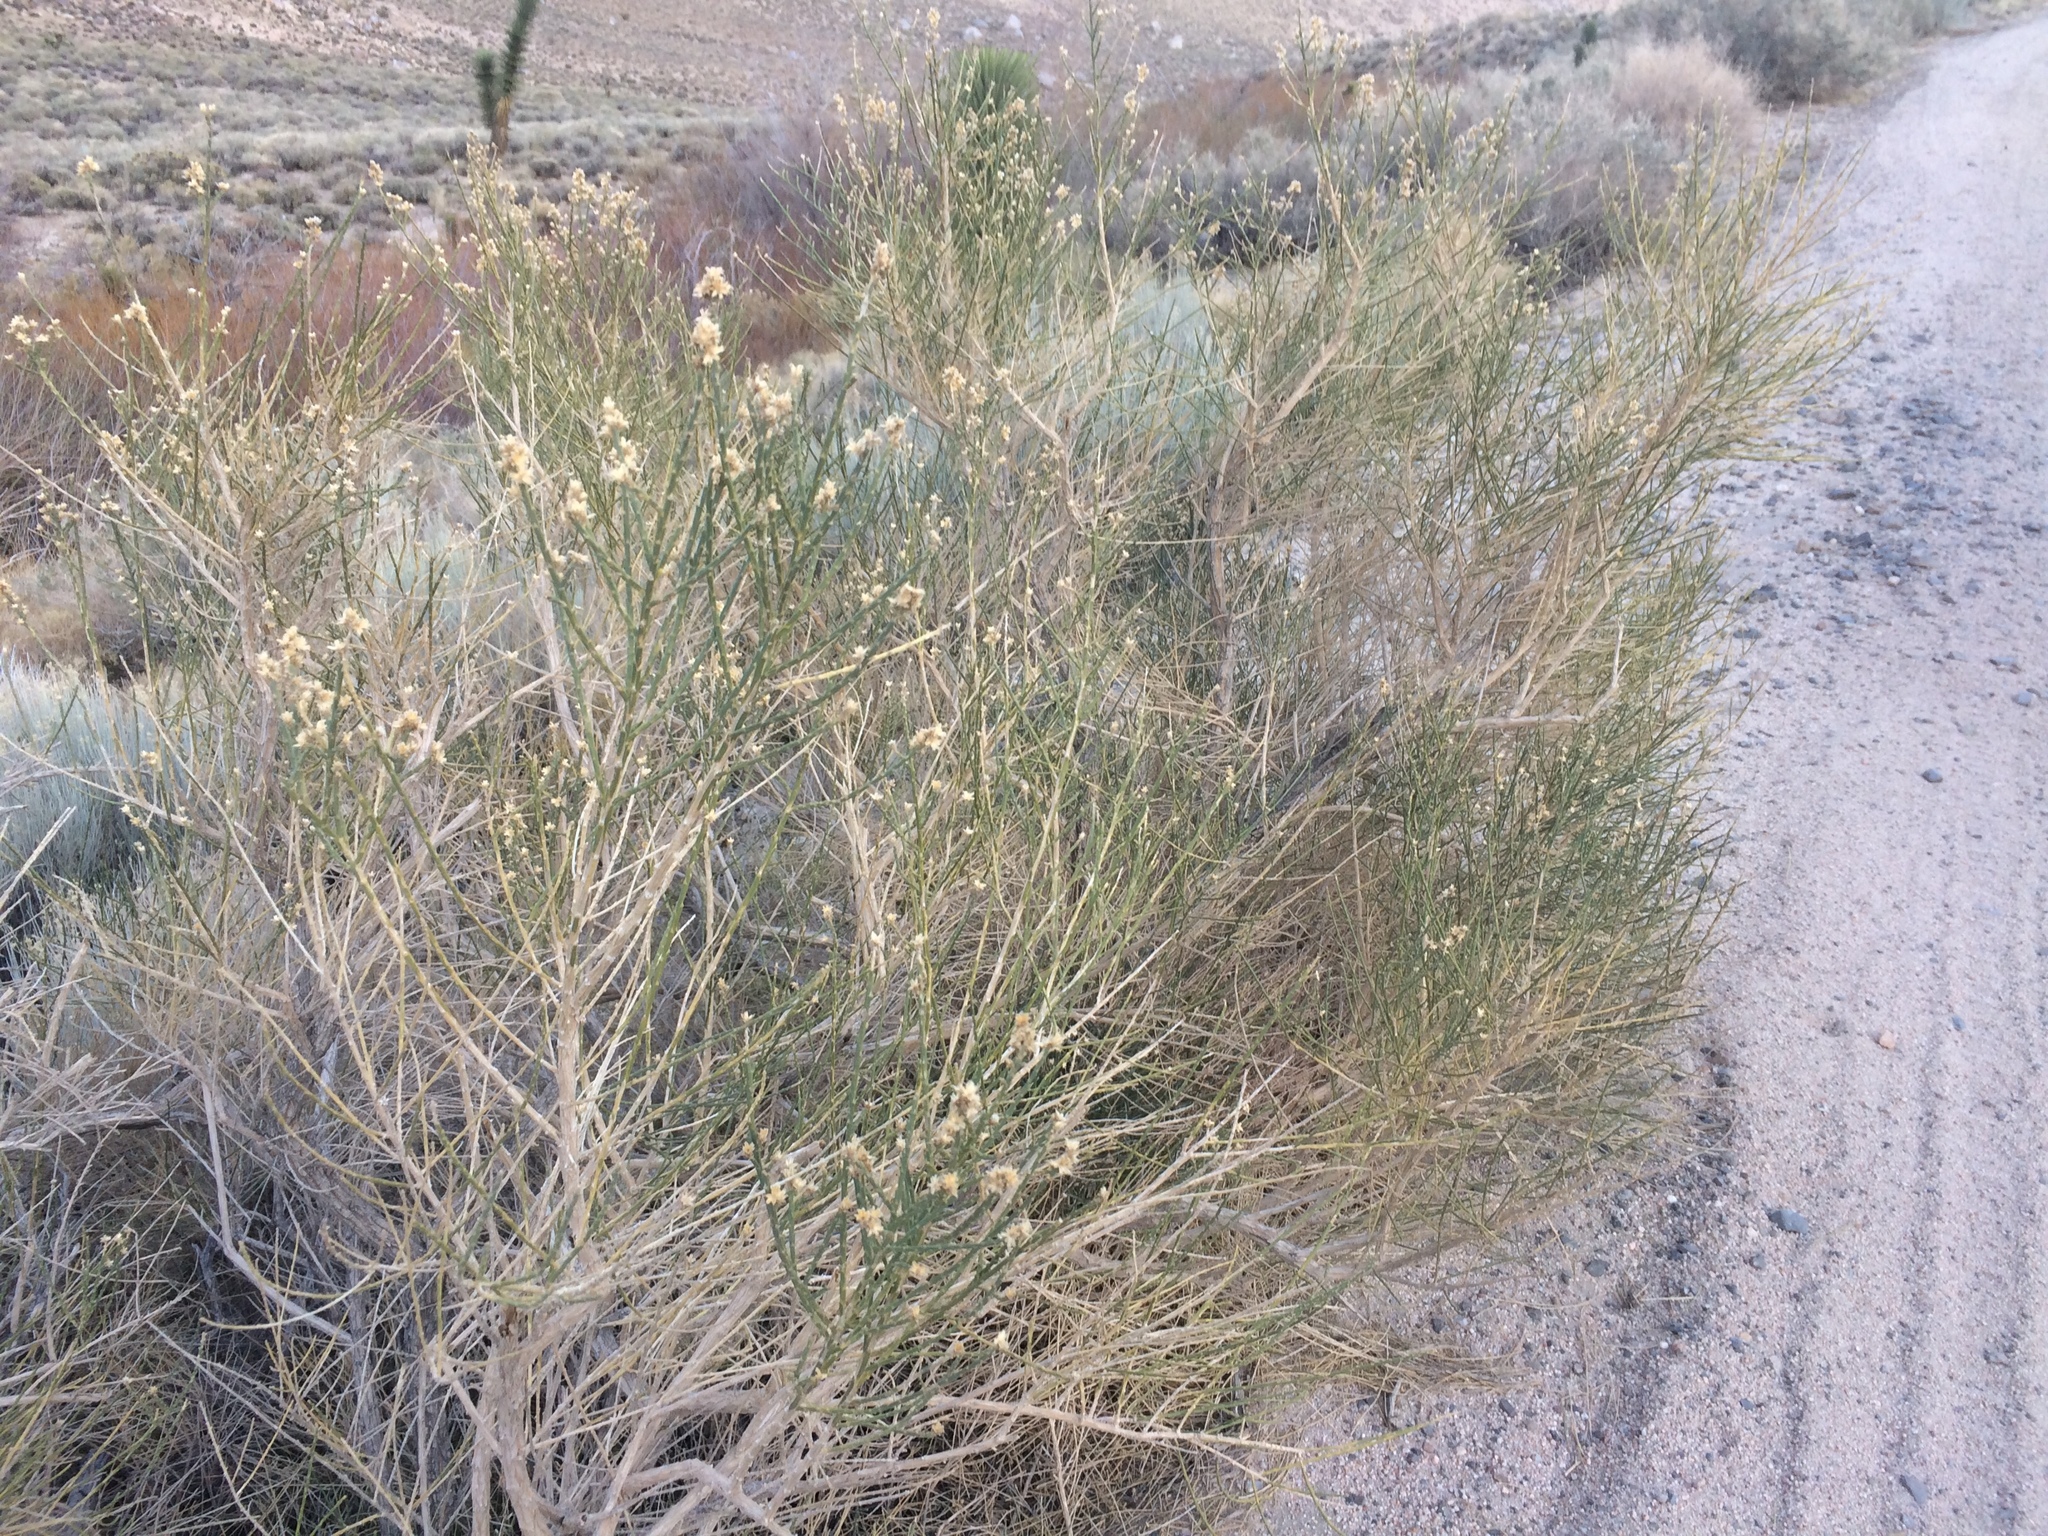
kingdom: Plantae
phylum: Tracheophyta
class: Magnoliopsida
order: Asterales
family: Asteraceae
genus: Lepidospartum
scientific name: Lepidospartum squamatum
